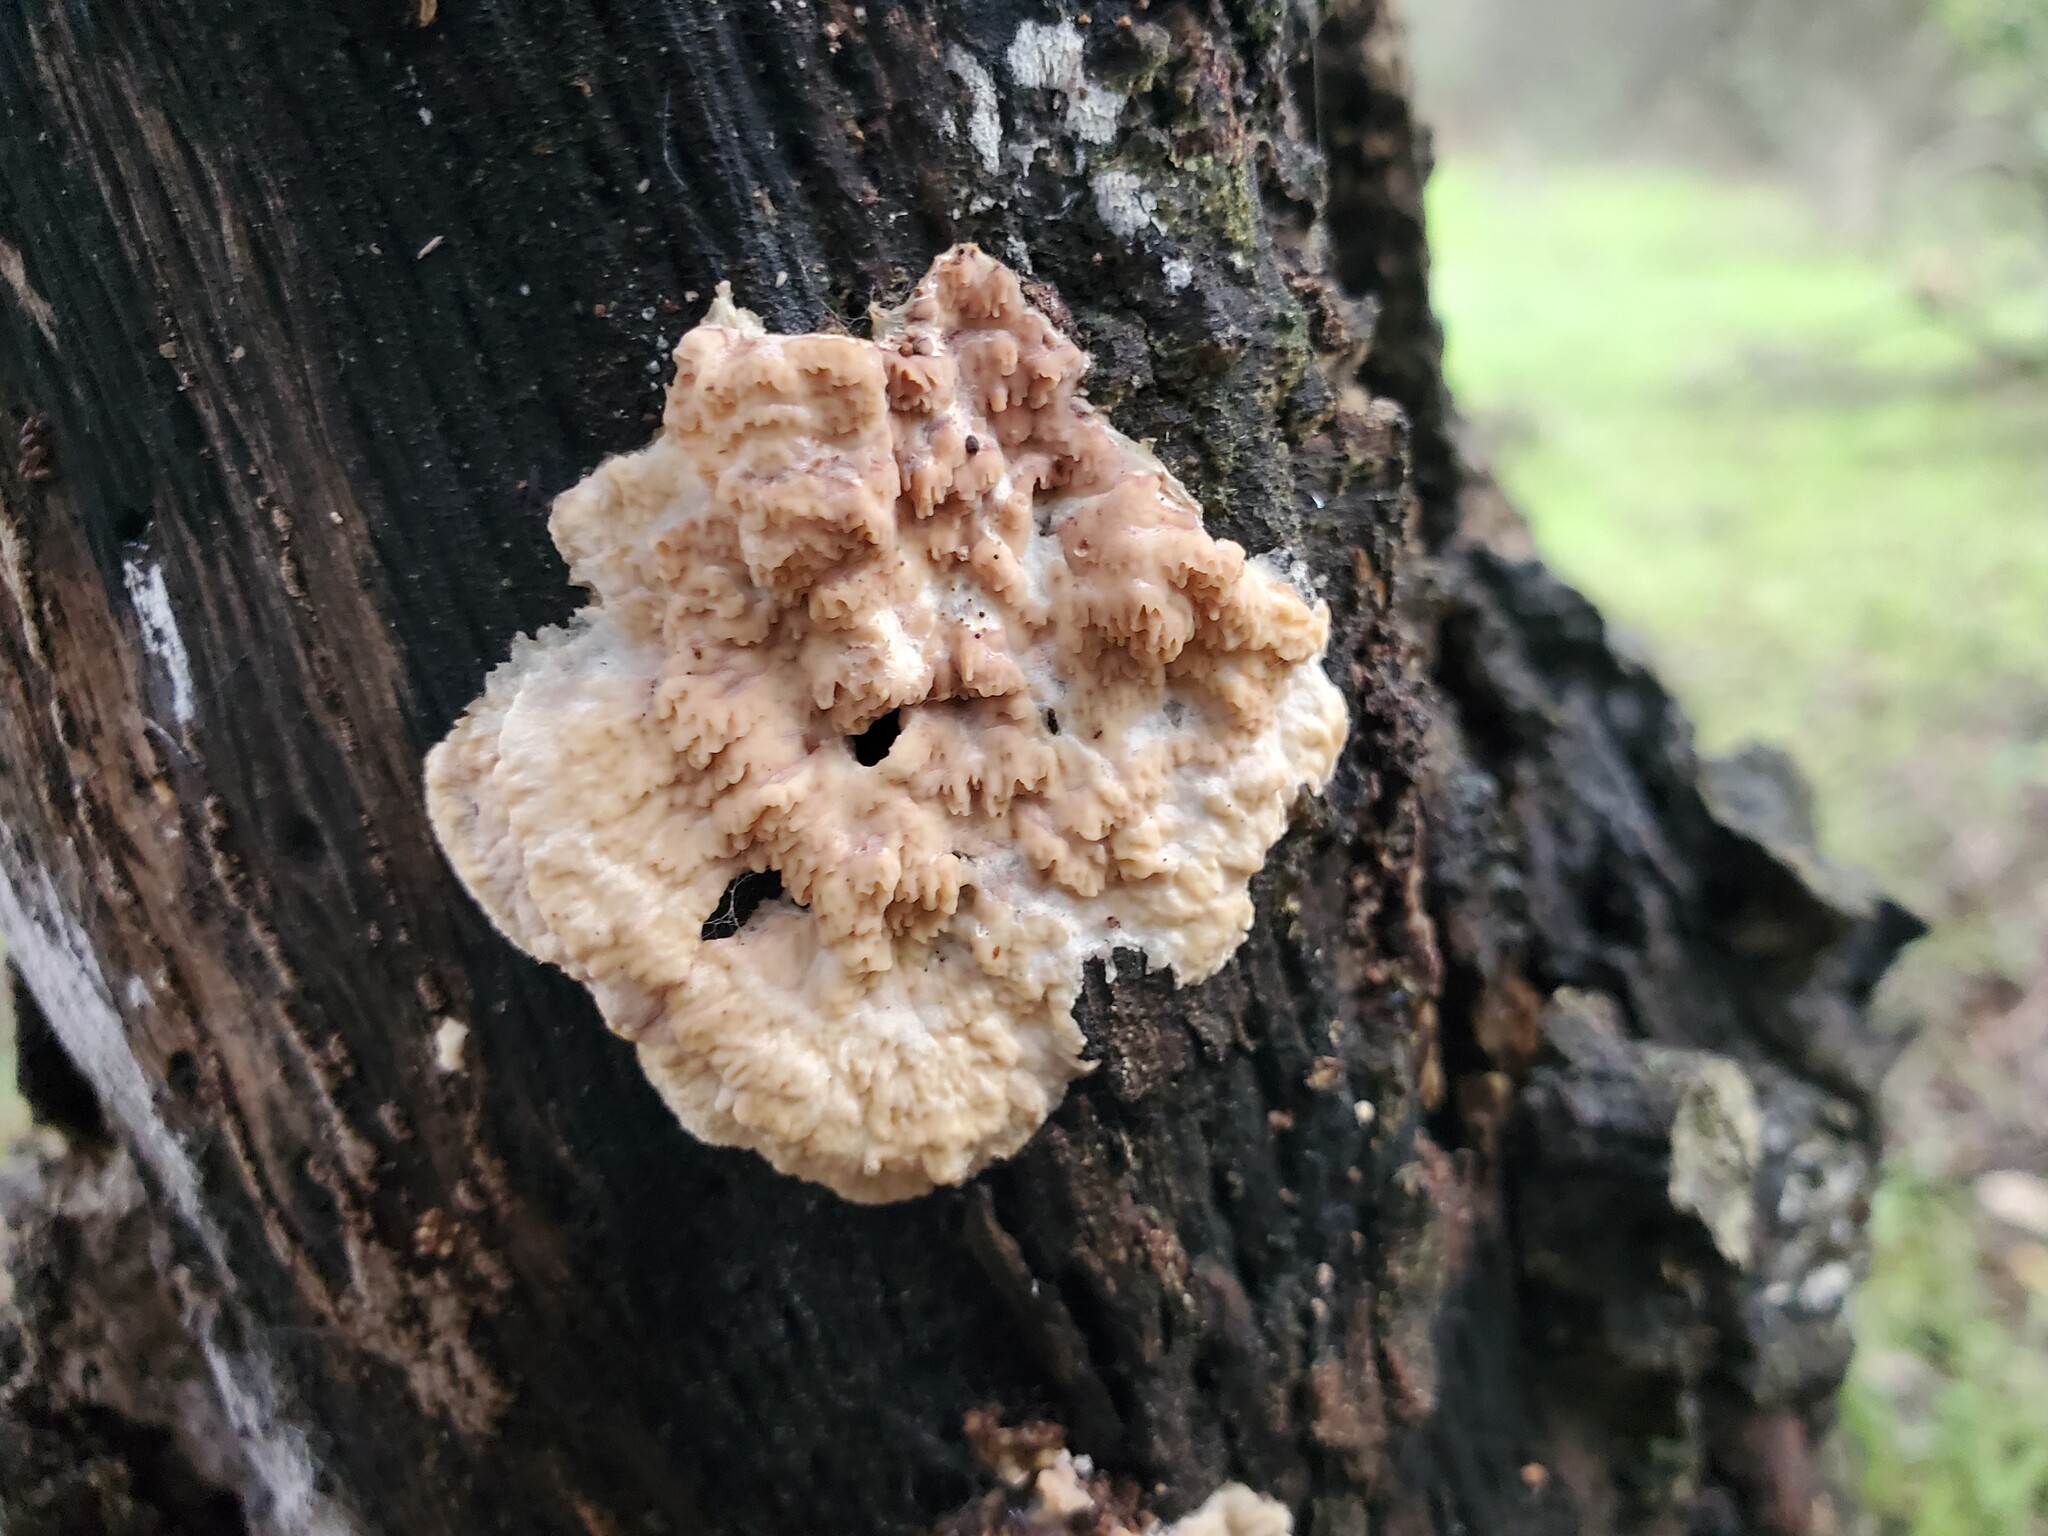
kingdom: Fungi
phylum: Basidiomycota
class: Agaricomycetes
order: Polyporales
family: Meruliaceae
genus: Phlebia
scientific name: Phlebia radiata
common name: Wrinkled crust
